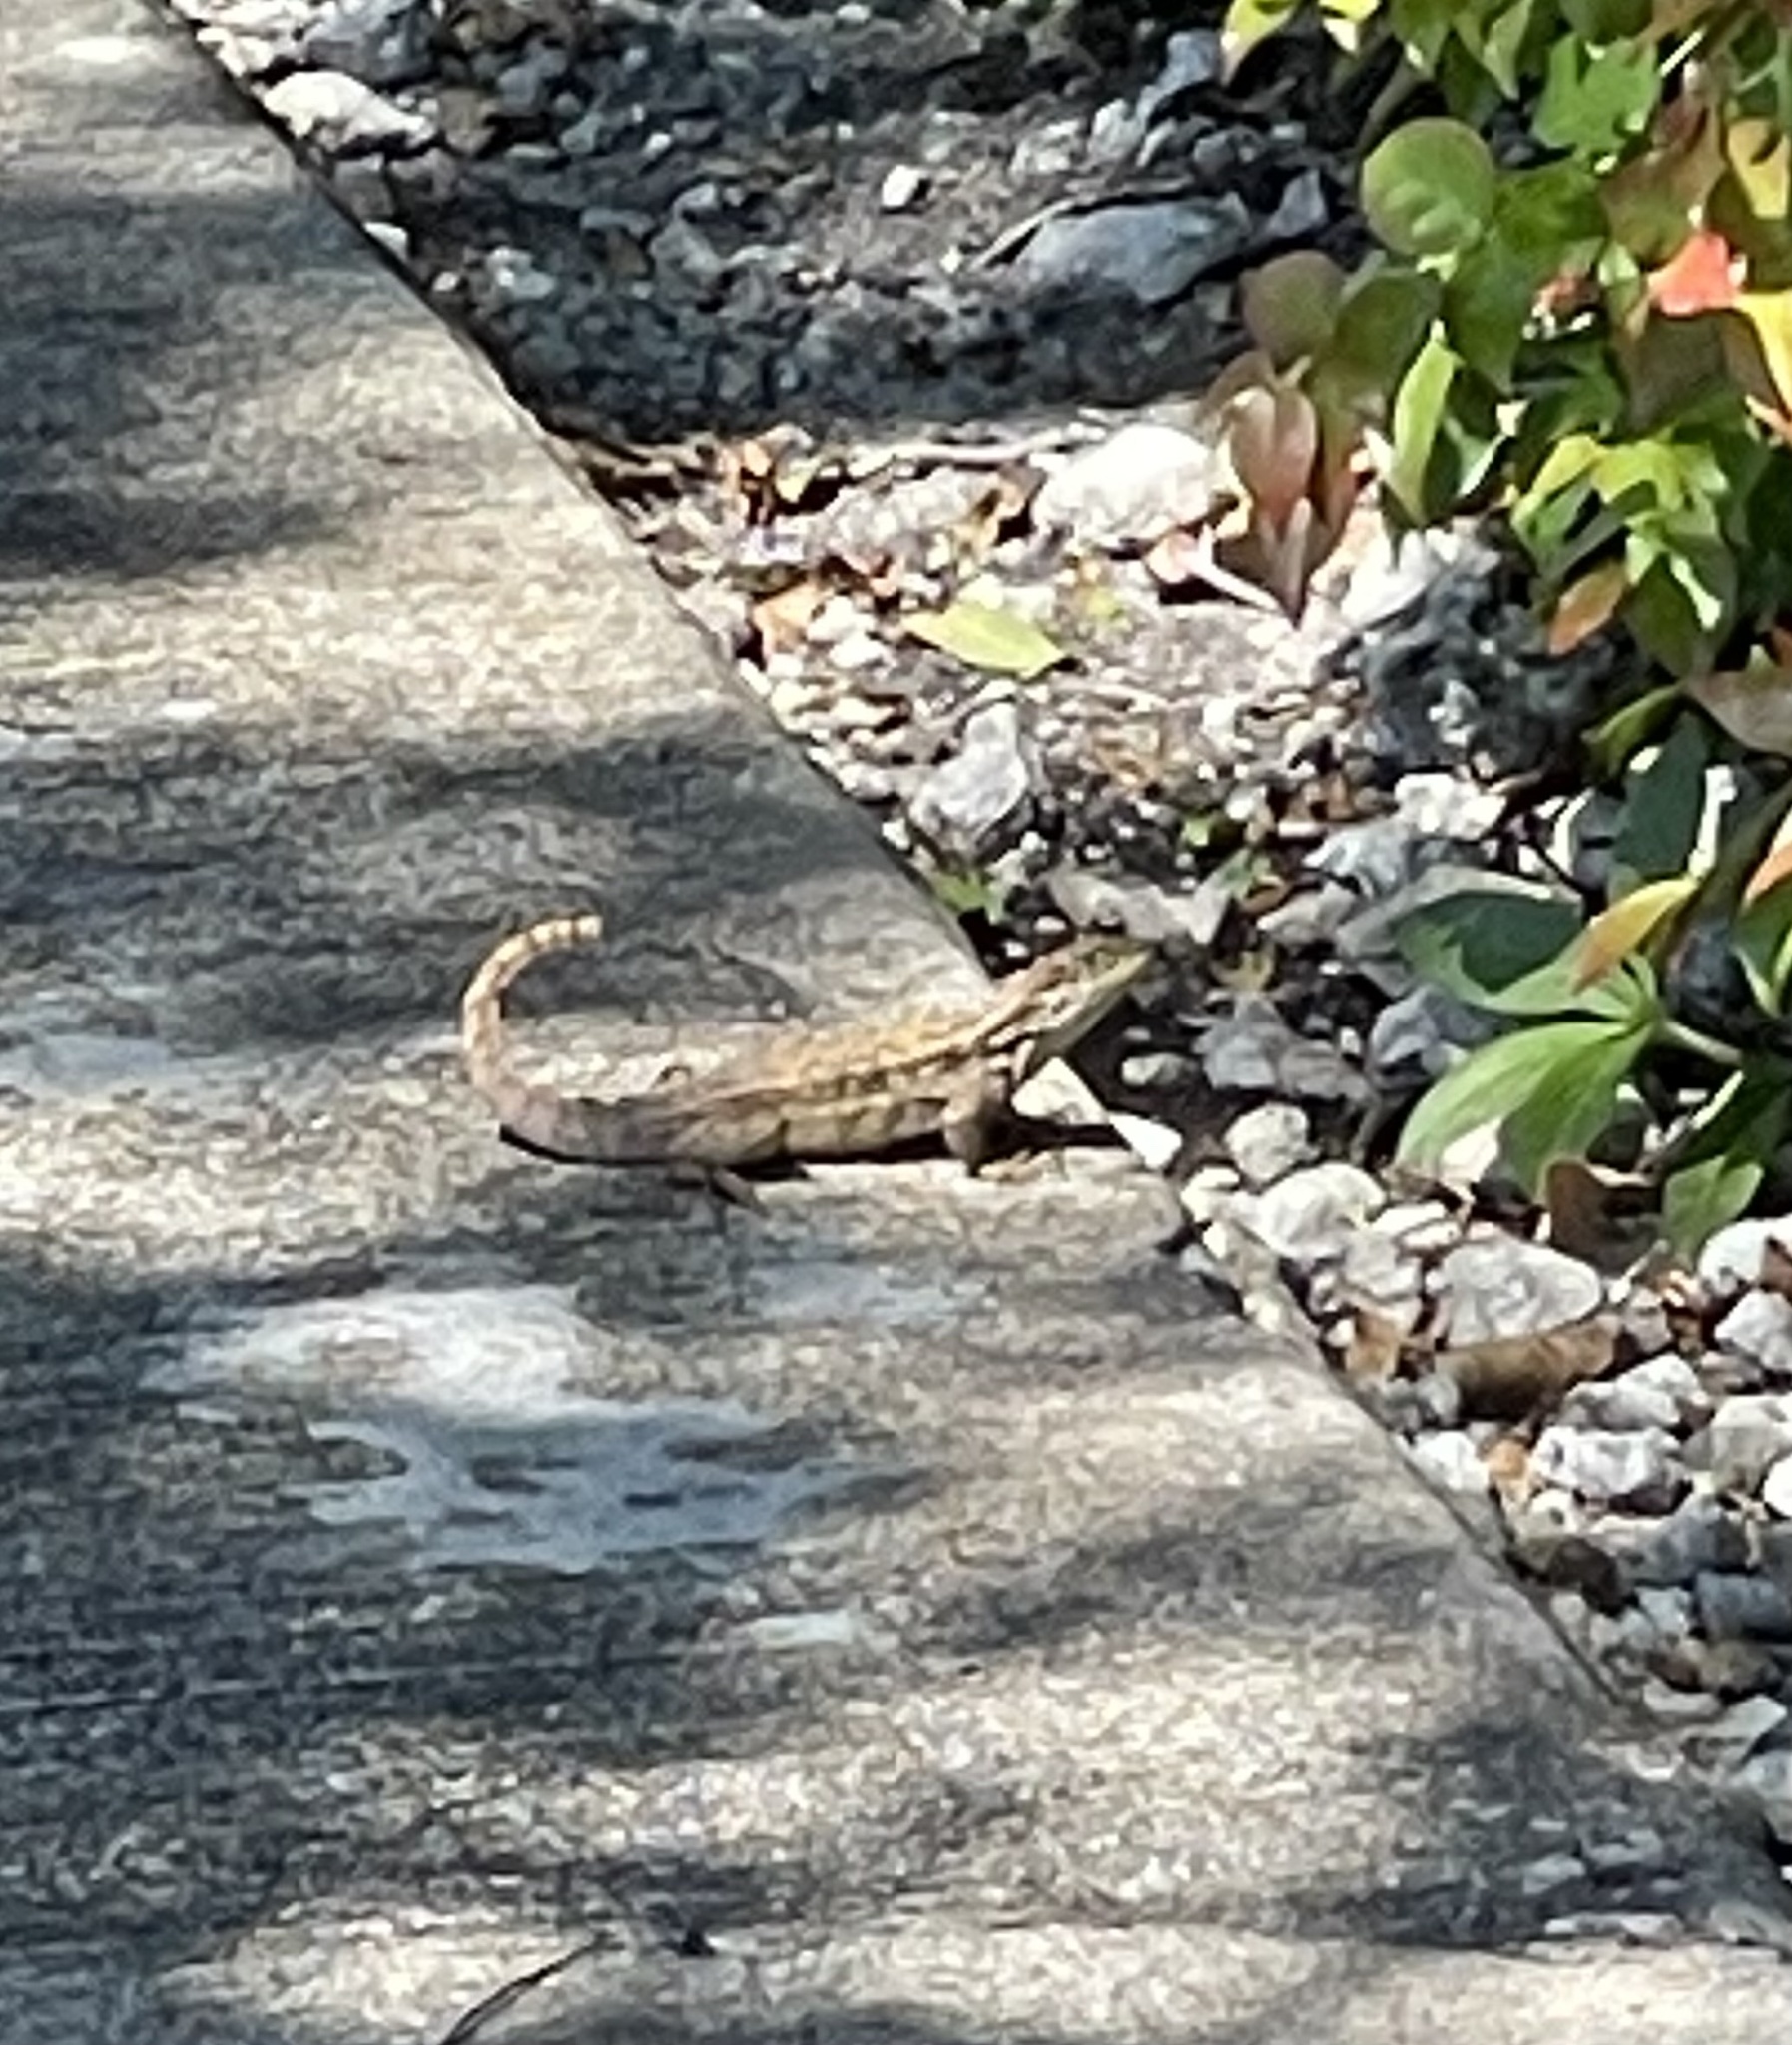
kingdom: Animalia
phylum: Chordata
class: Squamata
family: Leiocephalidae
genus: Leiocephalus
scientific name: Leiocephalus carinatus
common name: Northern curly-tailed lizard
